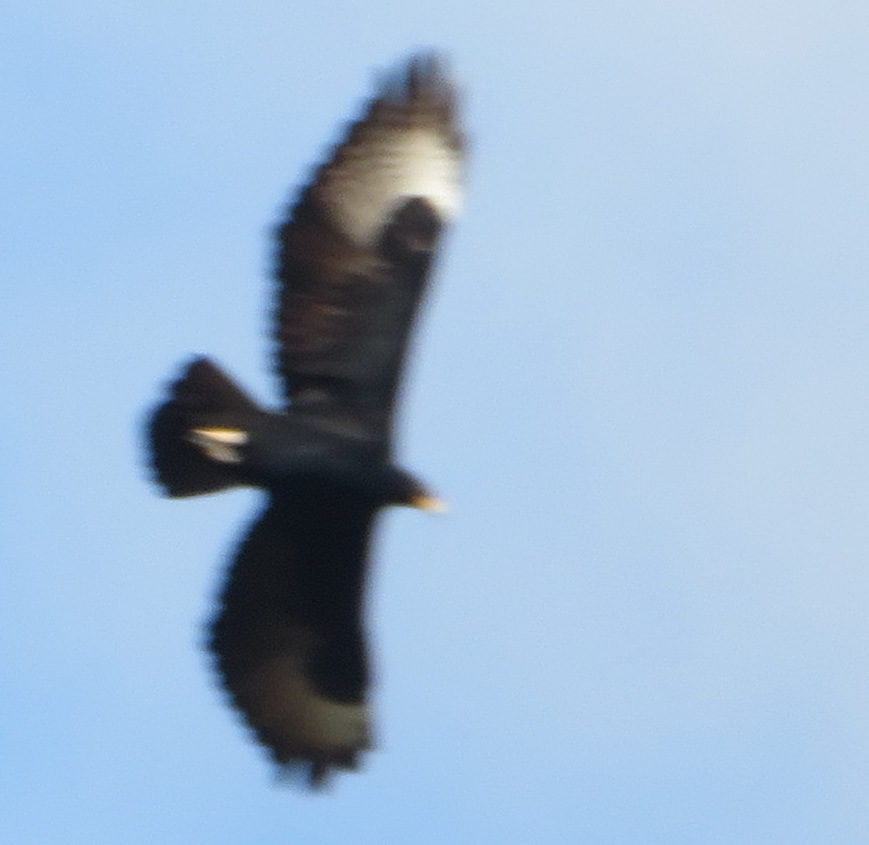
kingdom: Animalia
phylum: Chordata
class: Aves
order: Accipitriformes
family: Accipitridae
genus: Aquila
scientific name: Aquila verreauxii
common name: Verreaux's eagle
